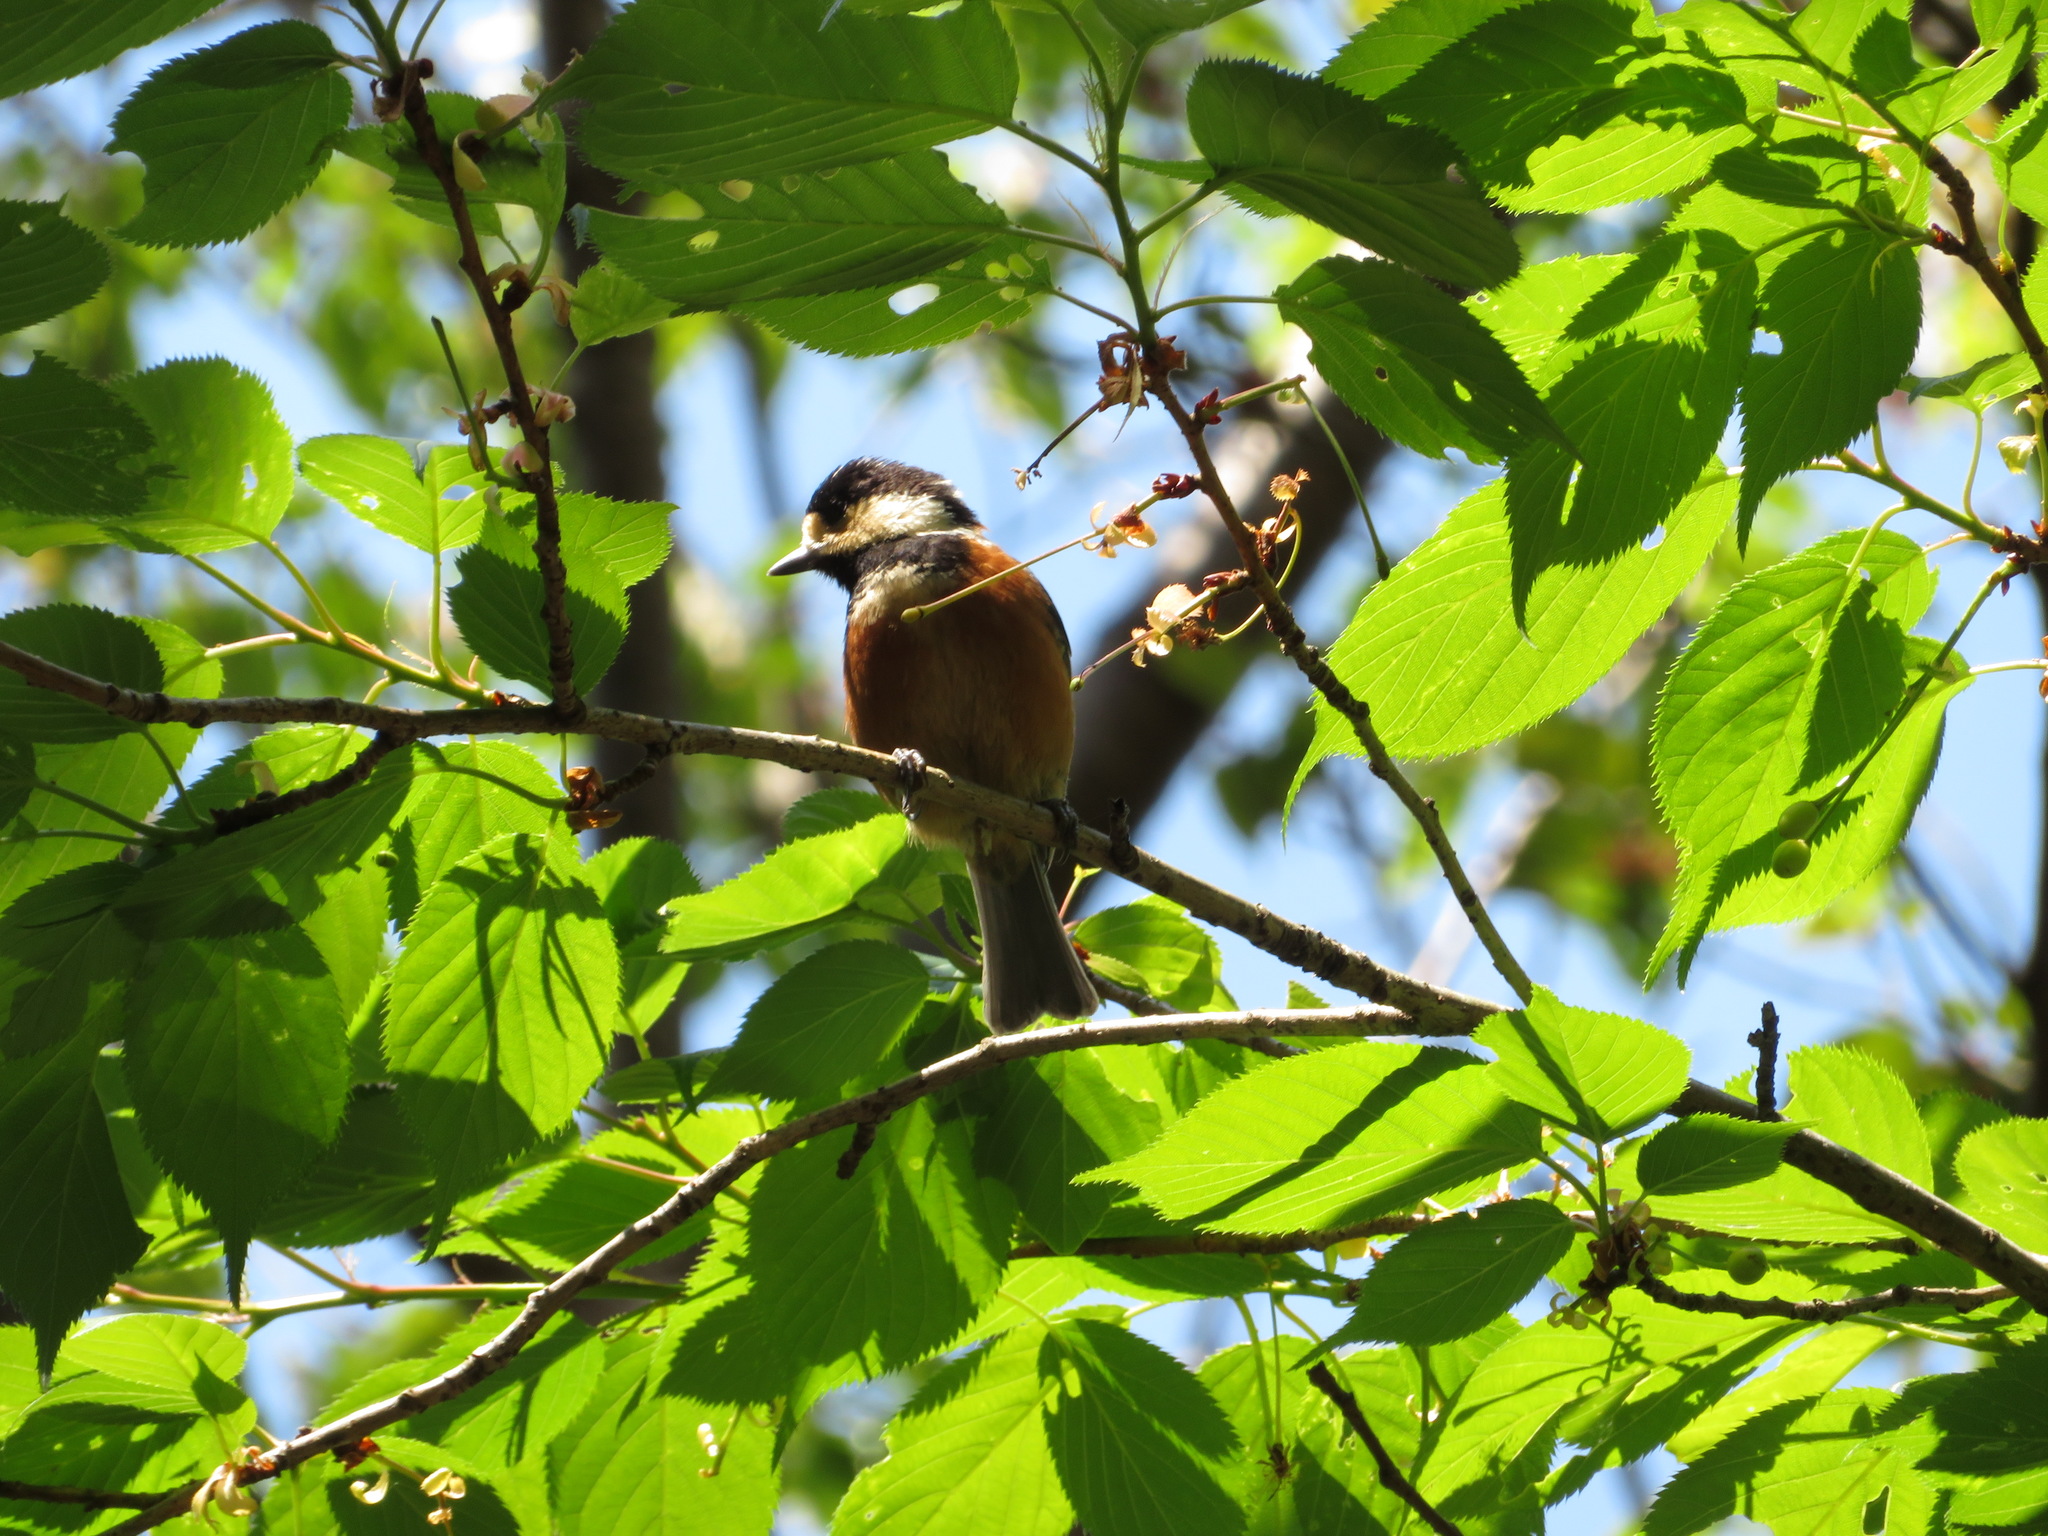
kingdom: Animalia
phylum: Chordata
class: Aves
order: Passeriformes
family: Paridae
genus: Poecile
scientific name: Poecile varius
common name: Varied tit
